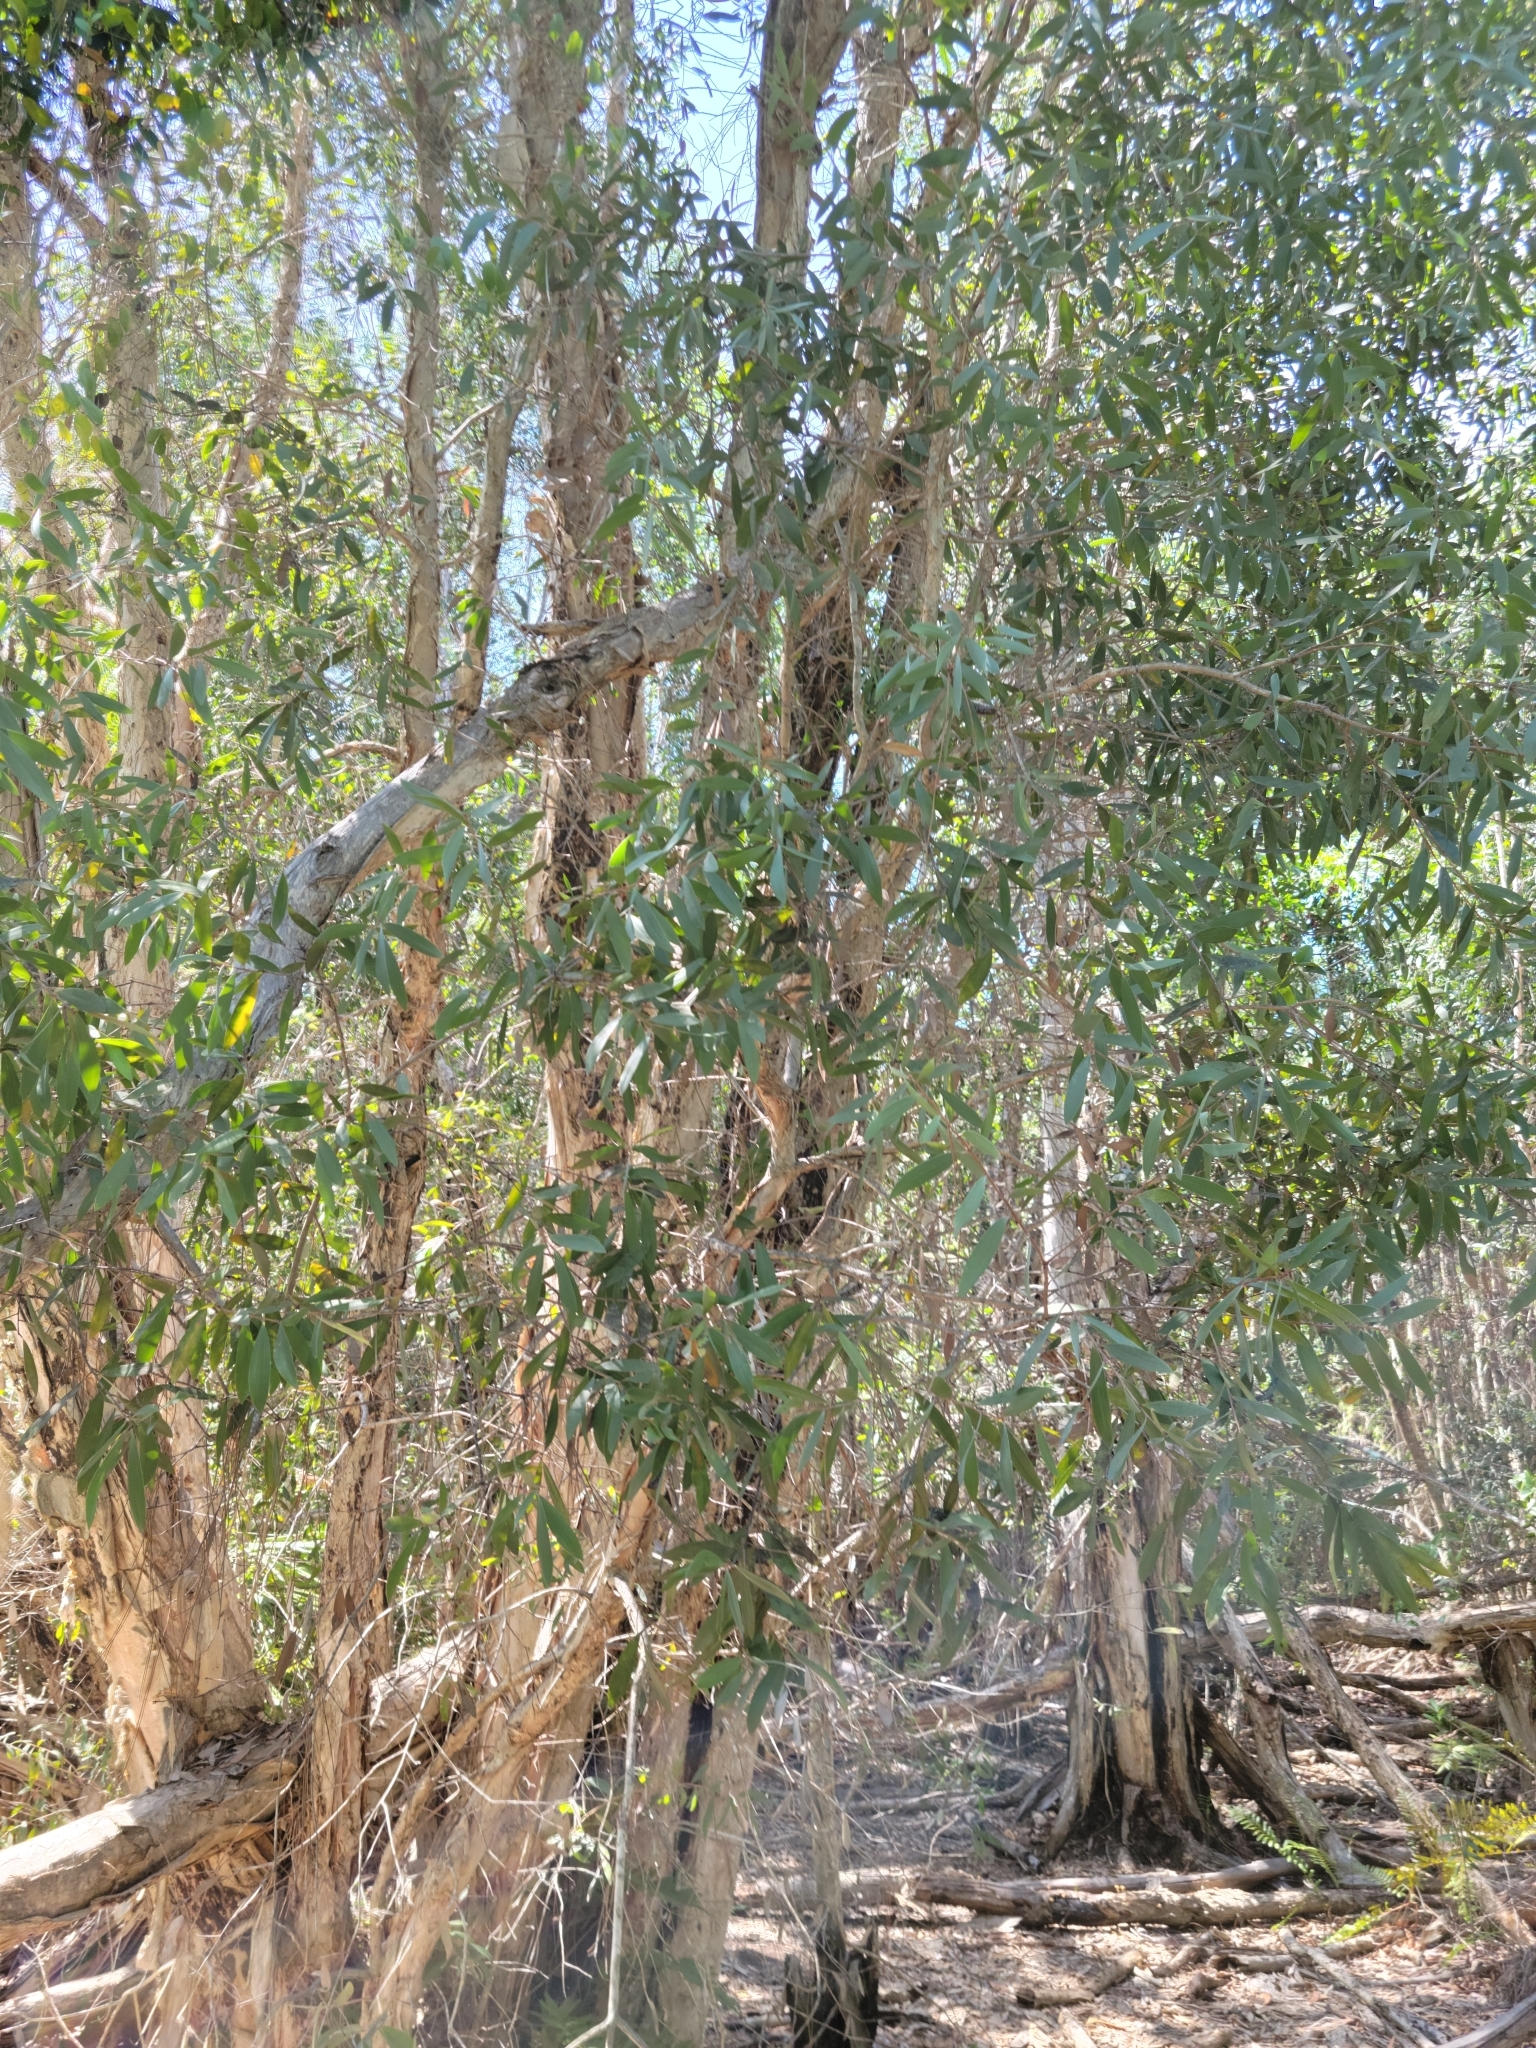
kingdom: Plantae
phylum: Tracheophyta
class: Magnoliopsida
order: Myrtales
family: Myrtaceae
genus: Melaleuca
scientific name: Melaleuca quinquenervia
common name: Punktree
